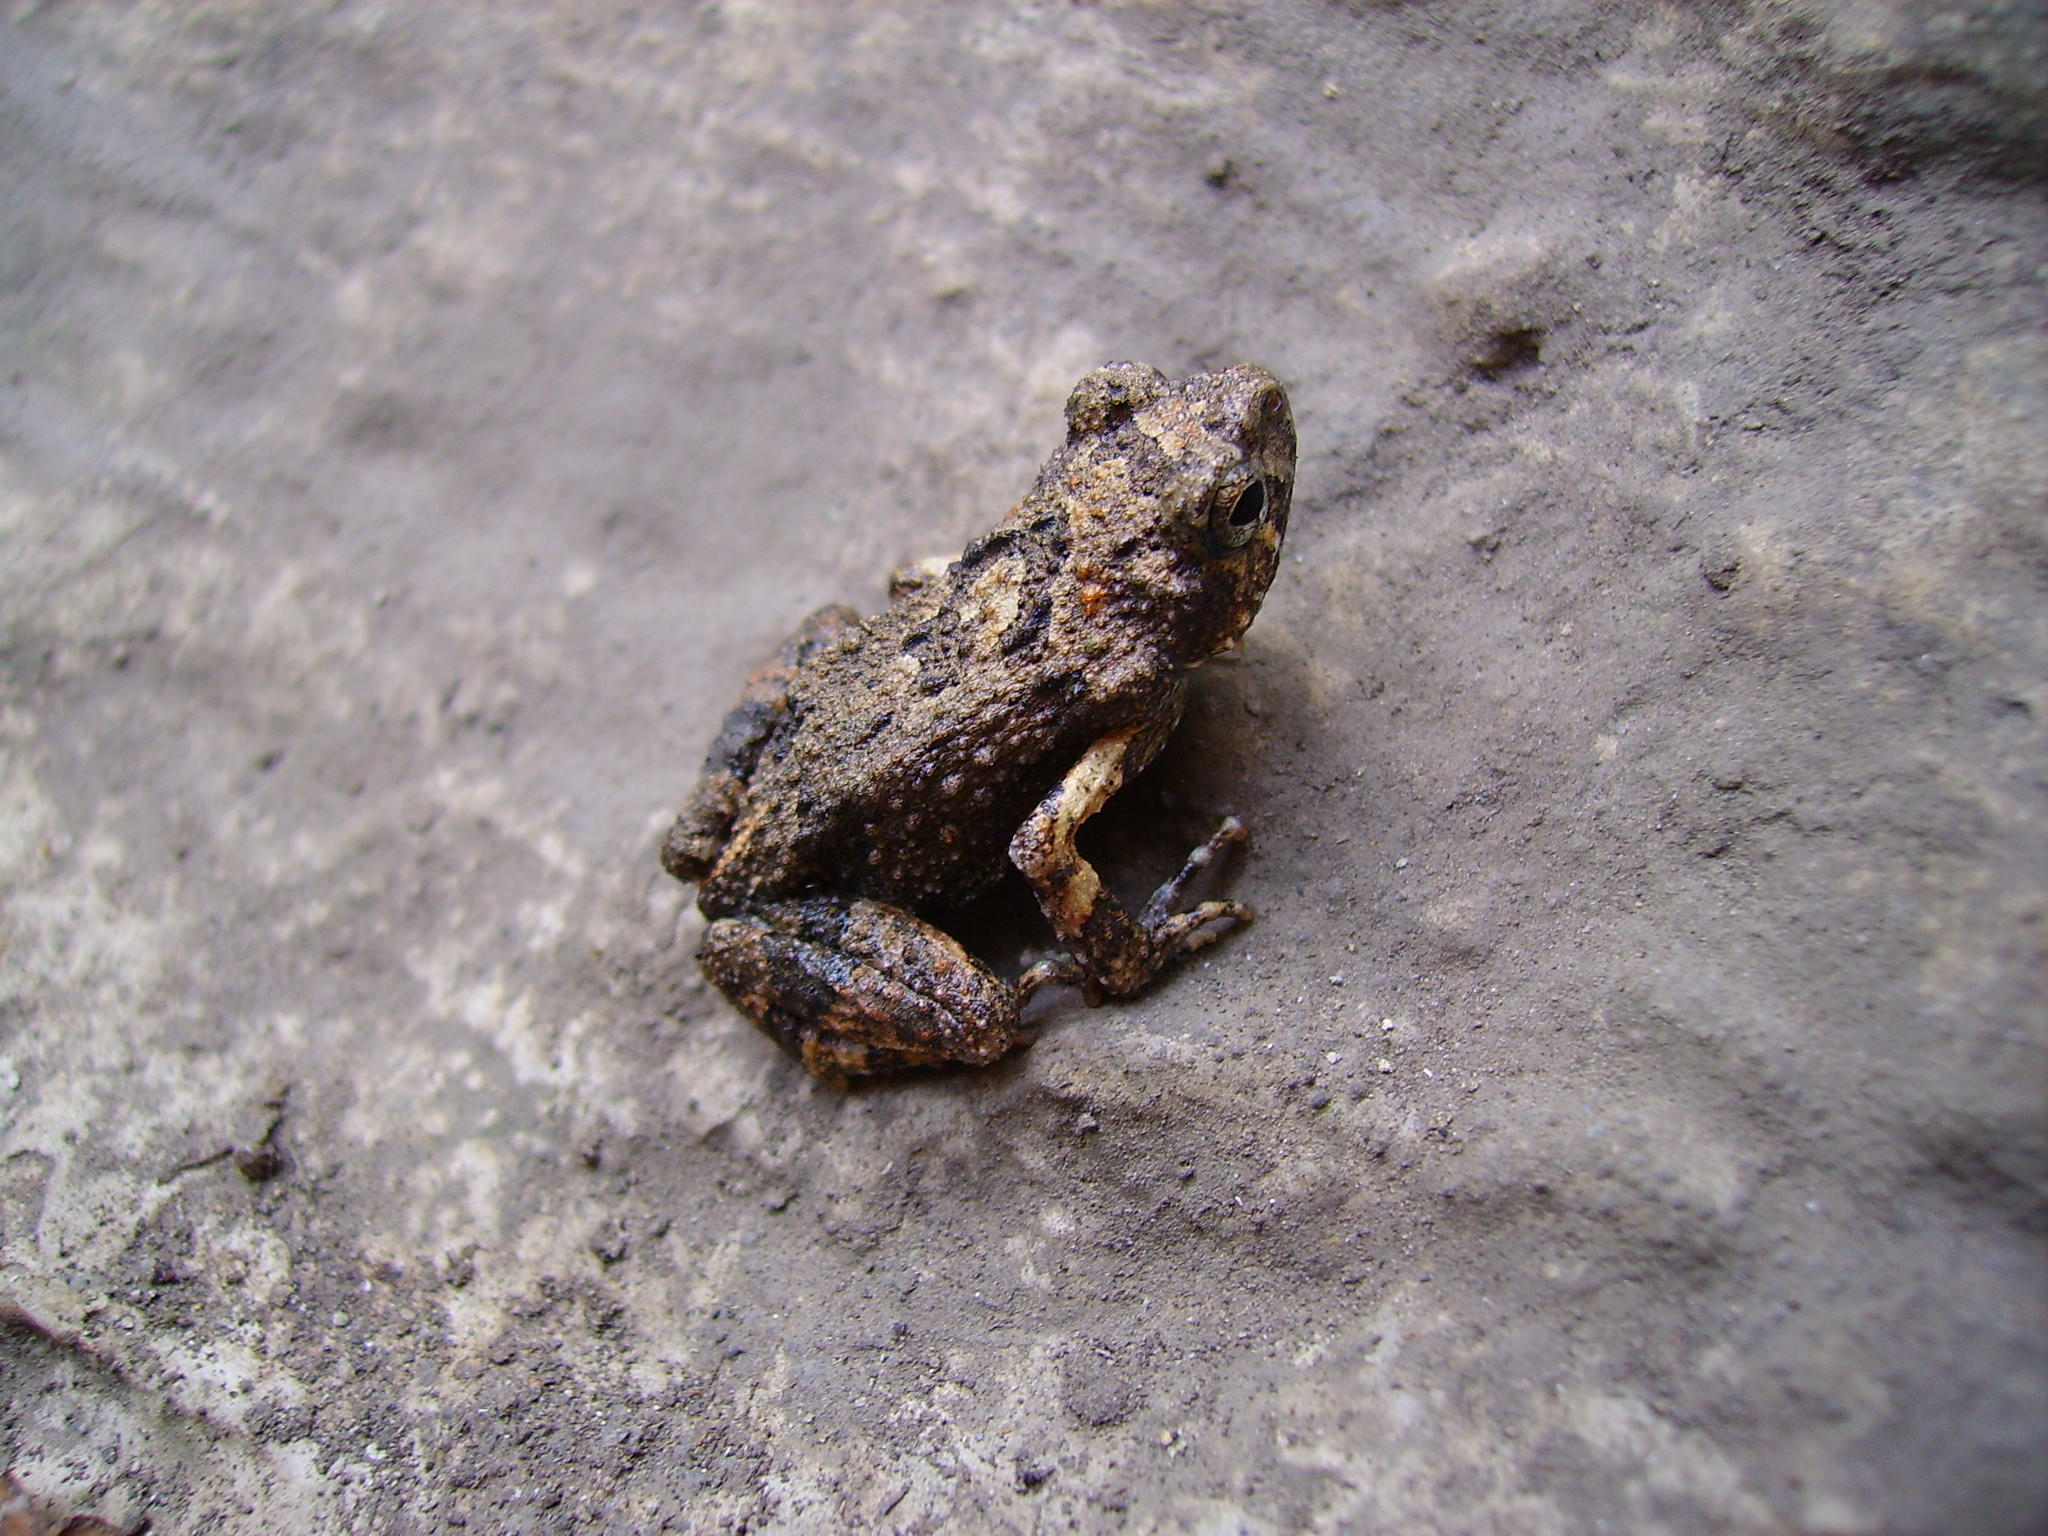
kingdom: Animalia
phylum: Chordata
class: Amphibia
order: Anura
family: Leptodactylidae
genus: Engystomops
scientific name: Engystomops pustulosus
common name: Tungara frog
